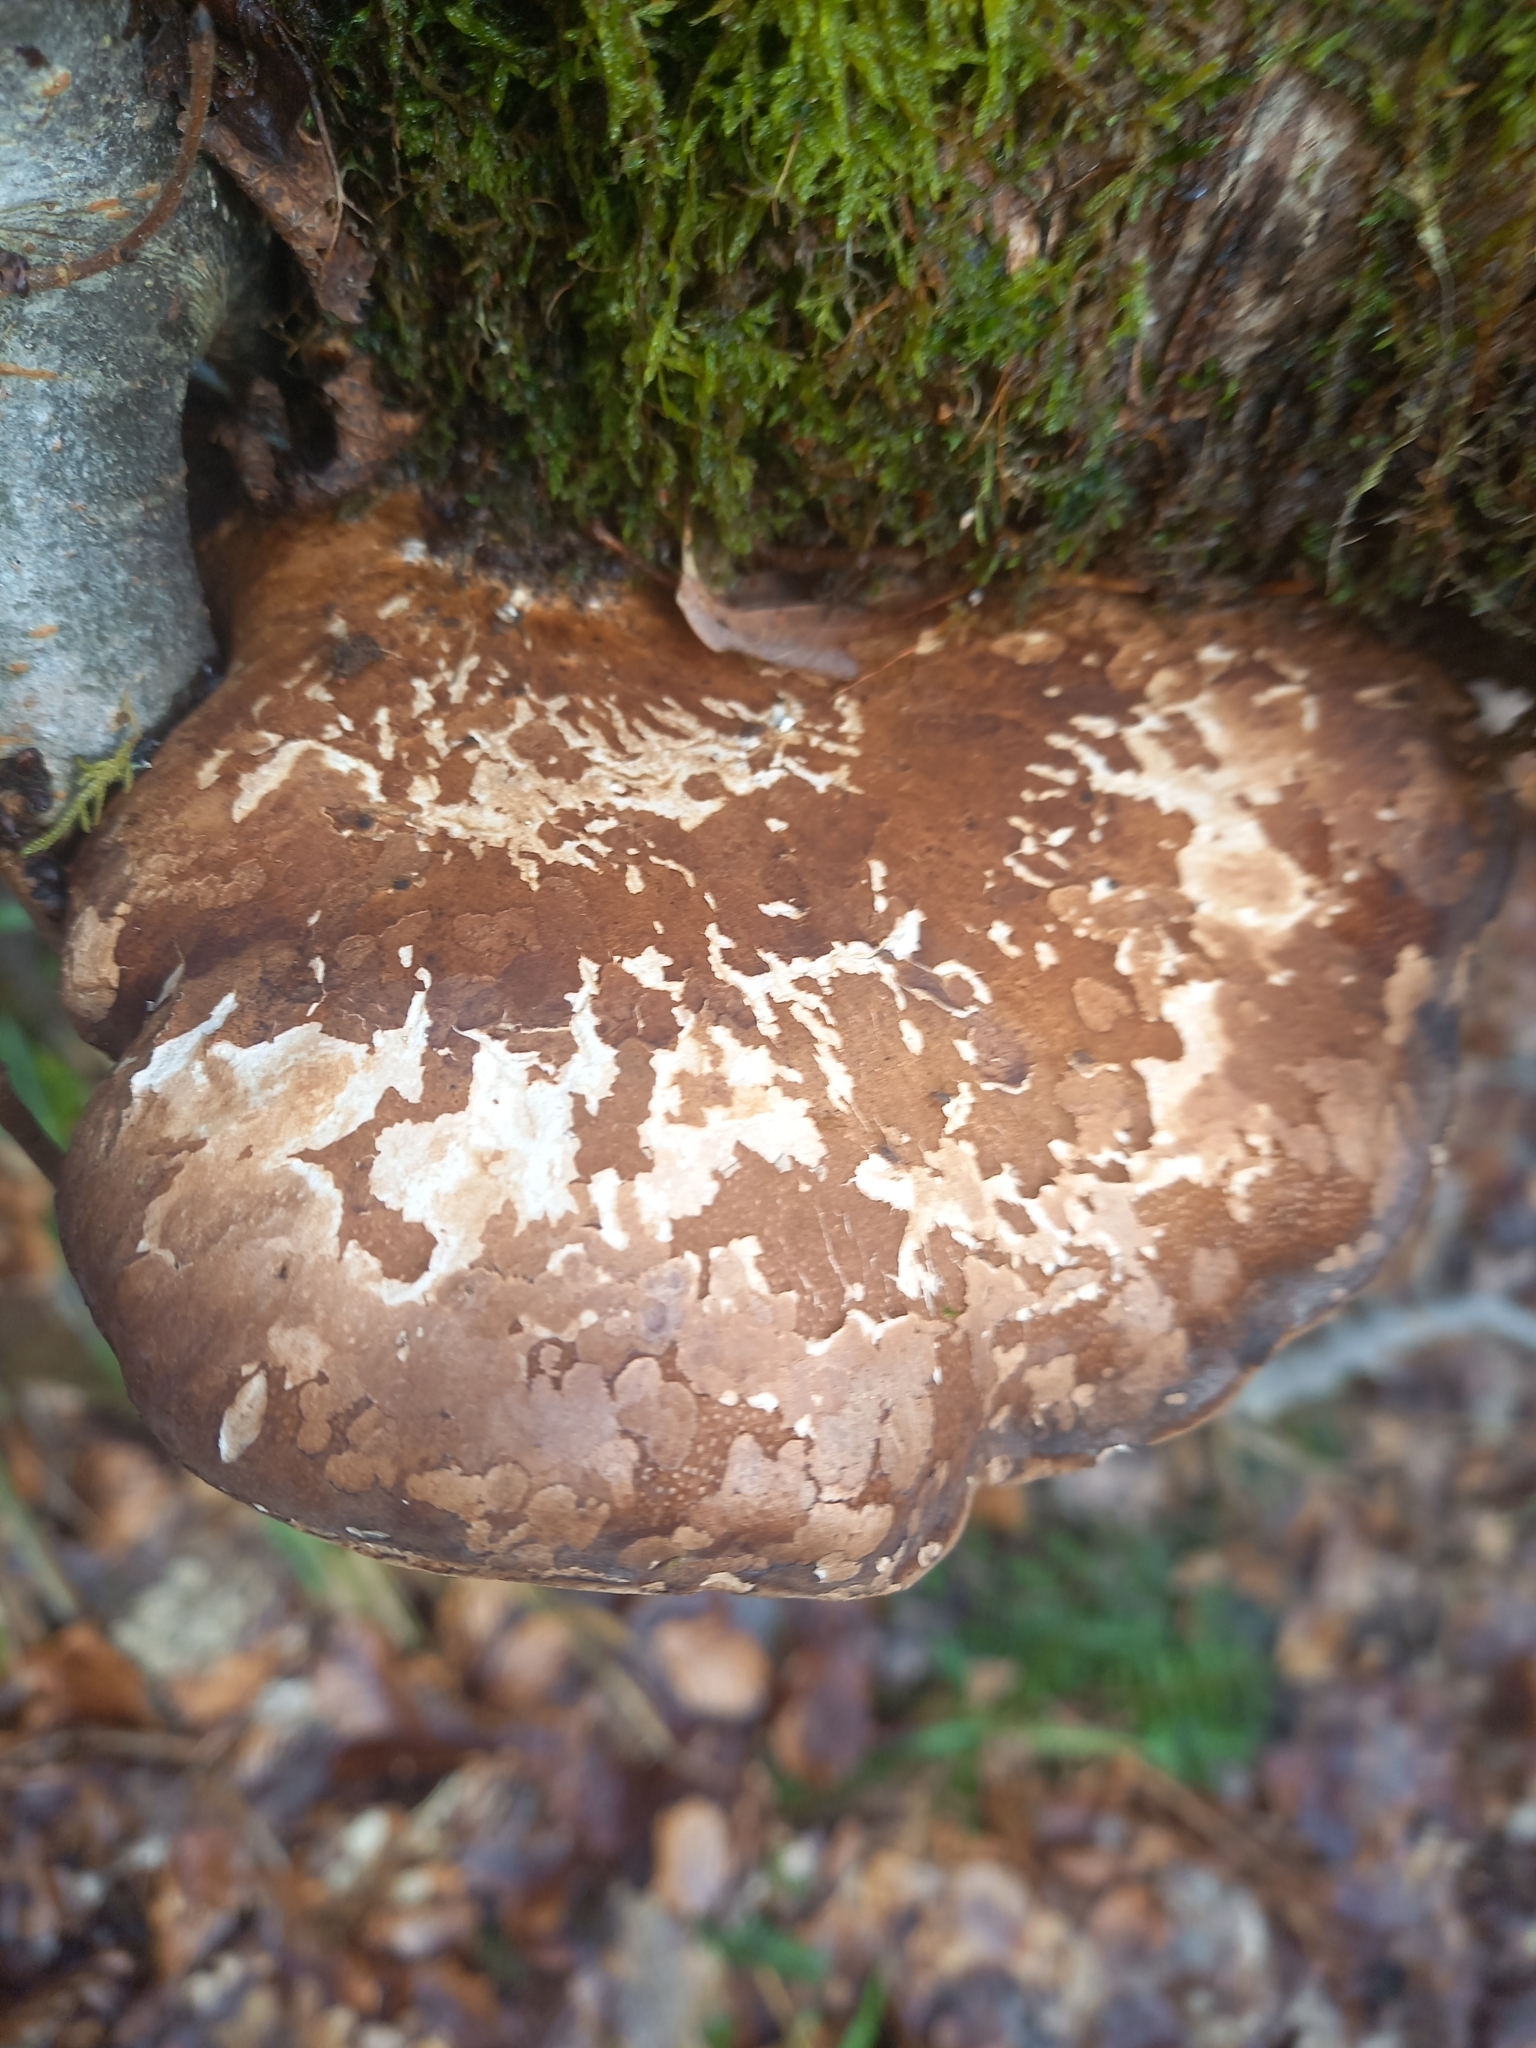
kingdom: Fungi
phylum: Basidiomycota
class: Agaricomycetes
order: Polyporales
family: Fomitopsidaceae
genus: Fomitopsis
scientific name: Fomitopsis betulina
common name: Birch polypore
